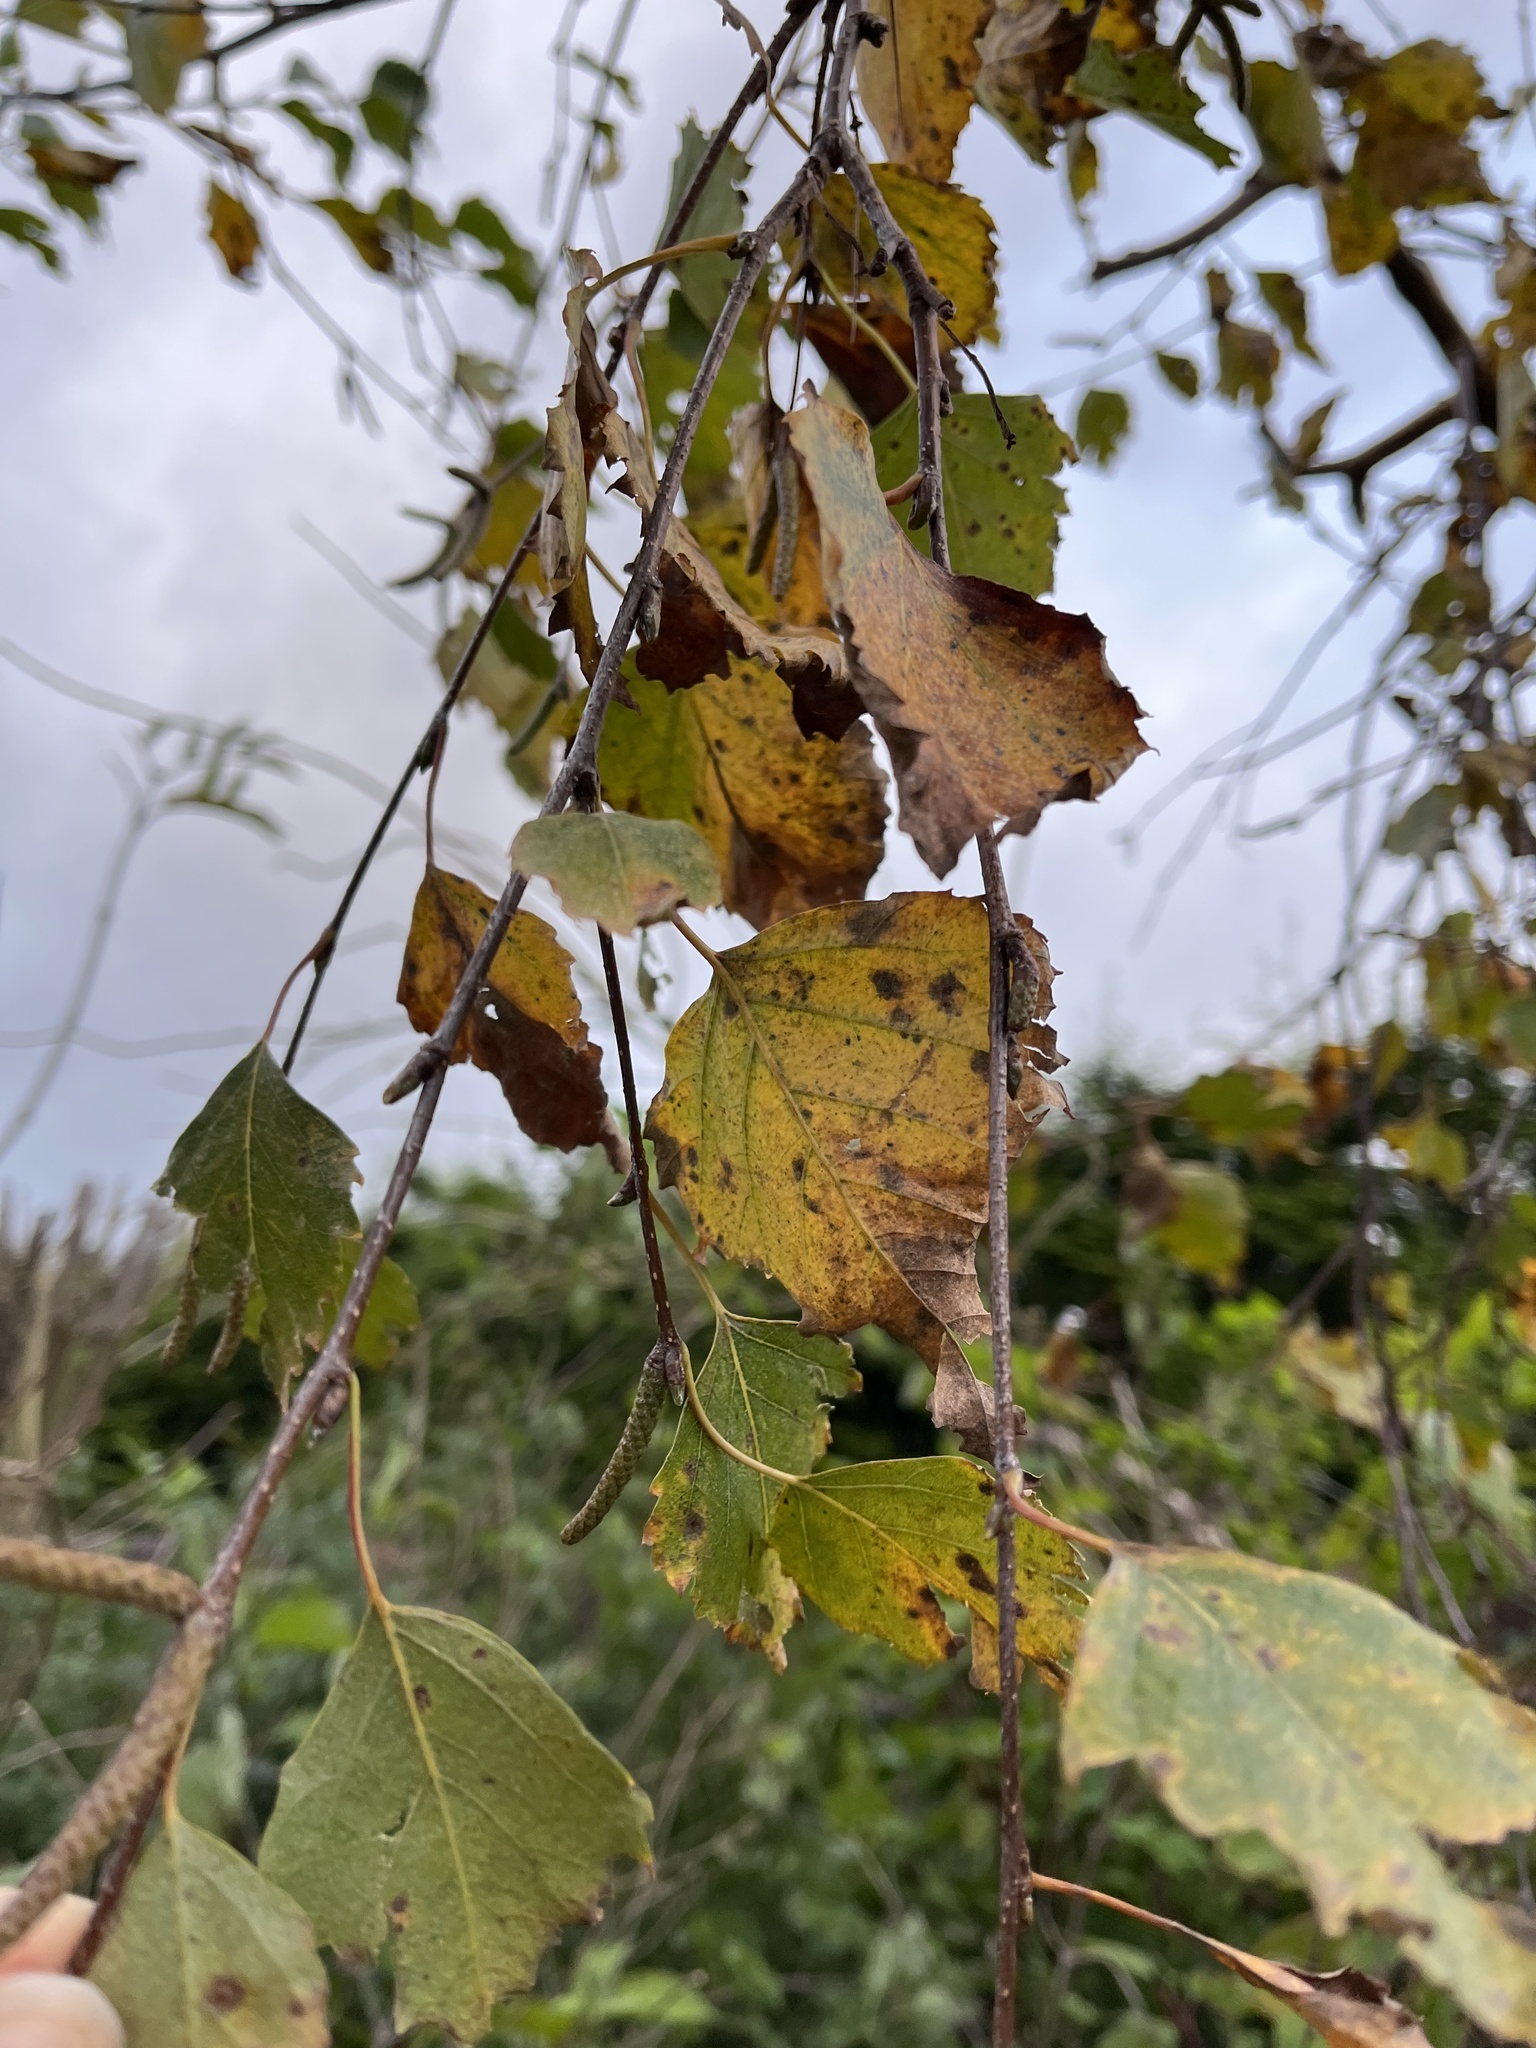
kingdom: Plantae
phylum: Tracheophyta
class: Magnoliopsida
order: Fagales
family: Betulaceae
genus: Betula
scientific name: Betula pendula
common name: Silver birch
